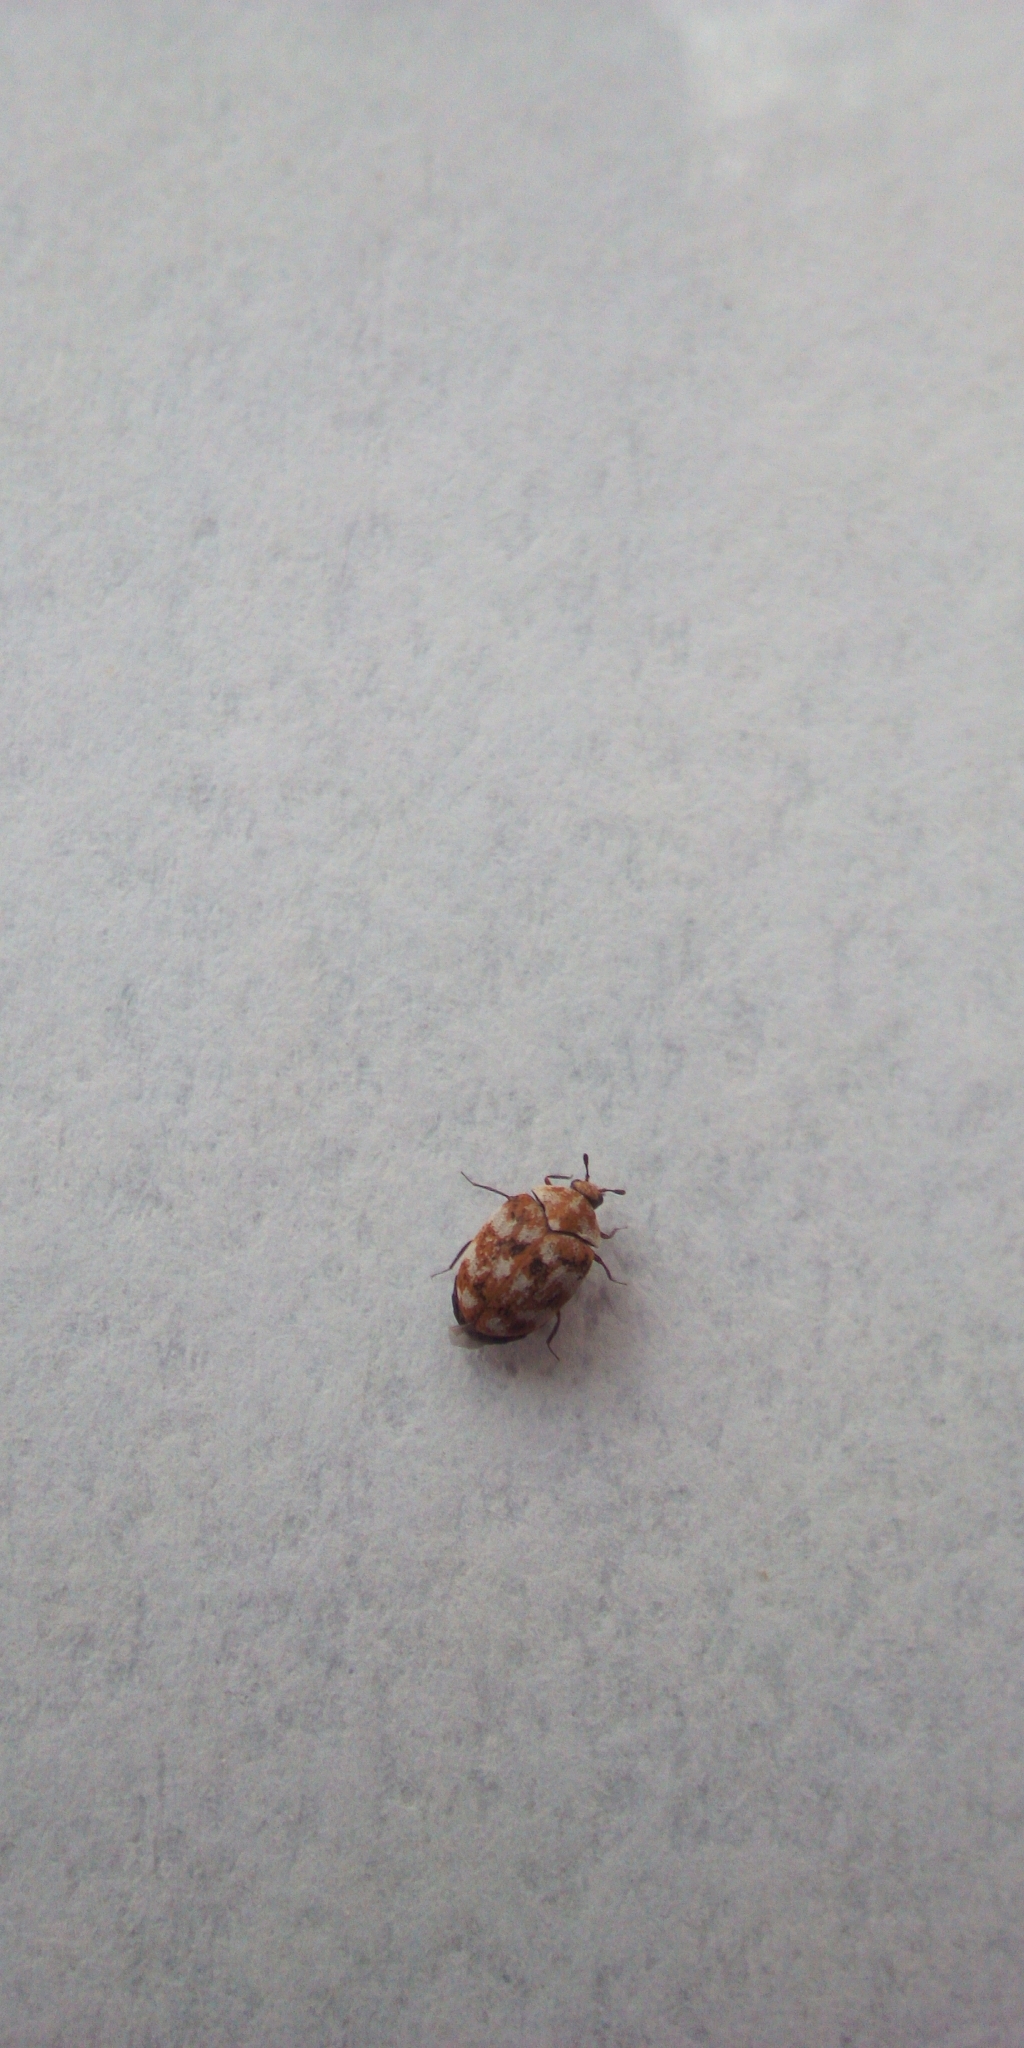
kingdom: Animalia
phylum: Arthropoda
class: Insecta
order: Coleoptera
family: Dermestidae
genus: Anthrenus
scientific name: Anthrenus verbasci
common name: Varied carpet beetle
